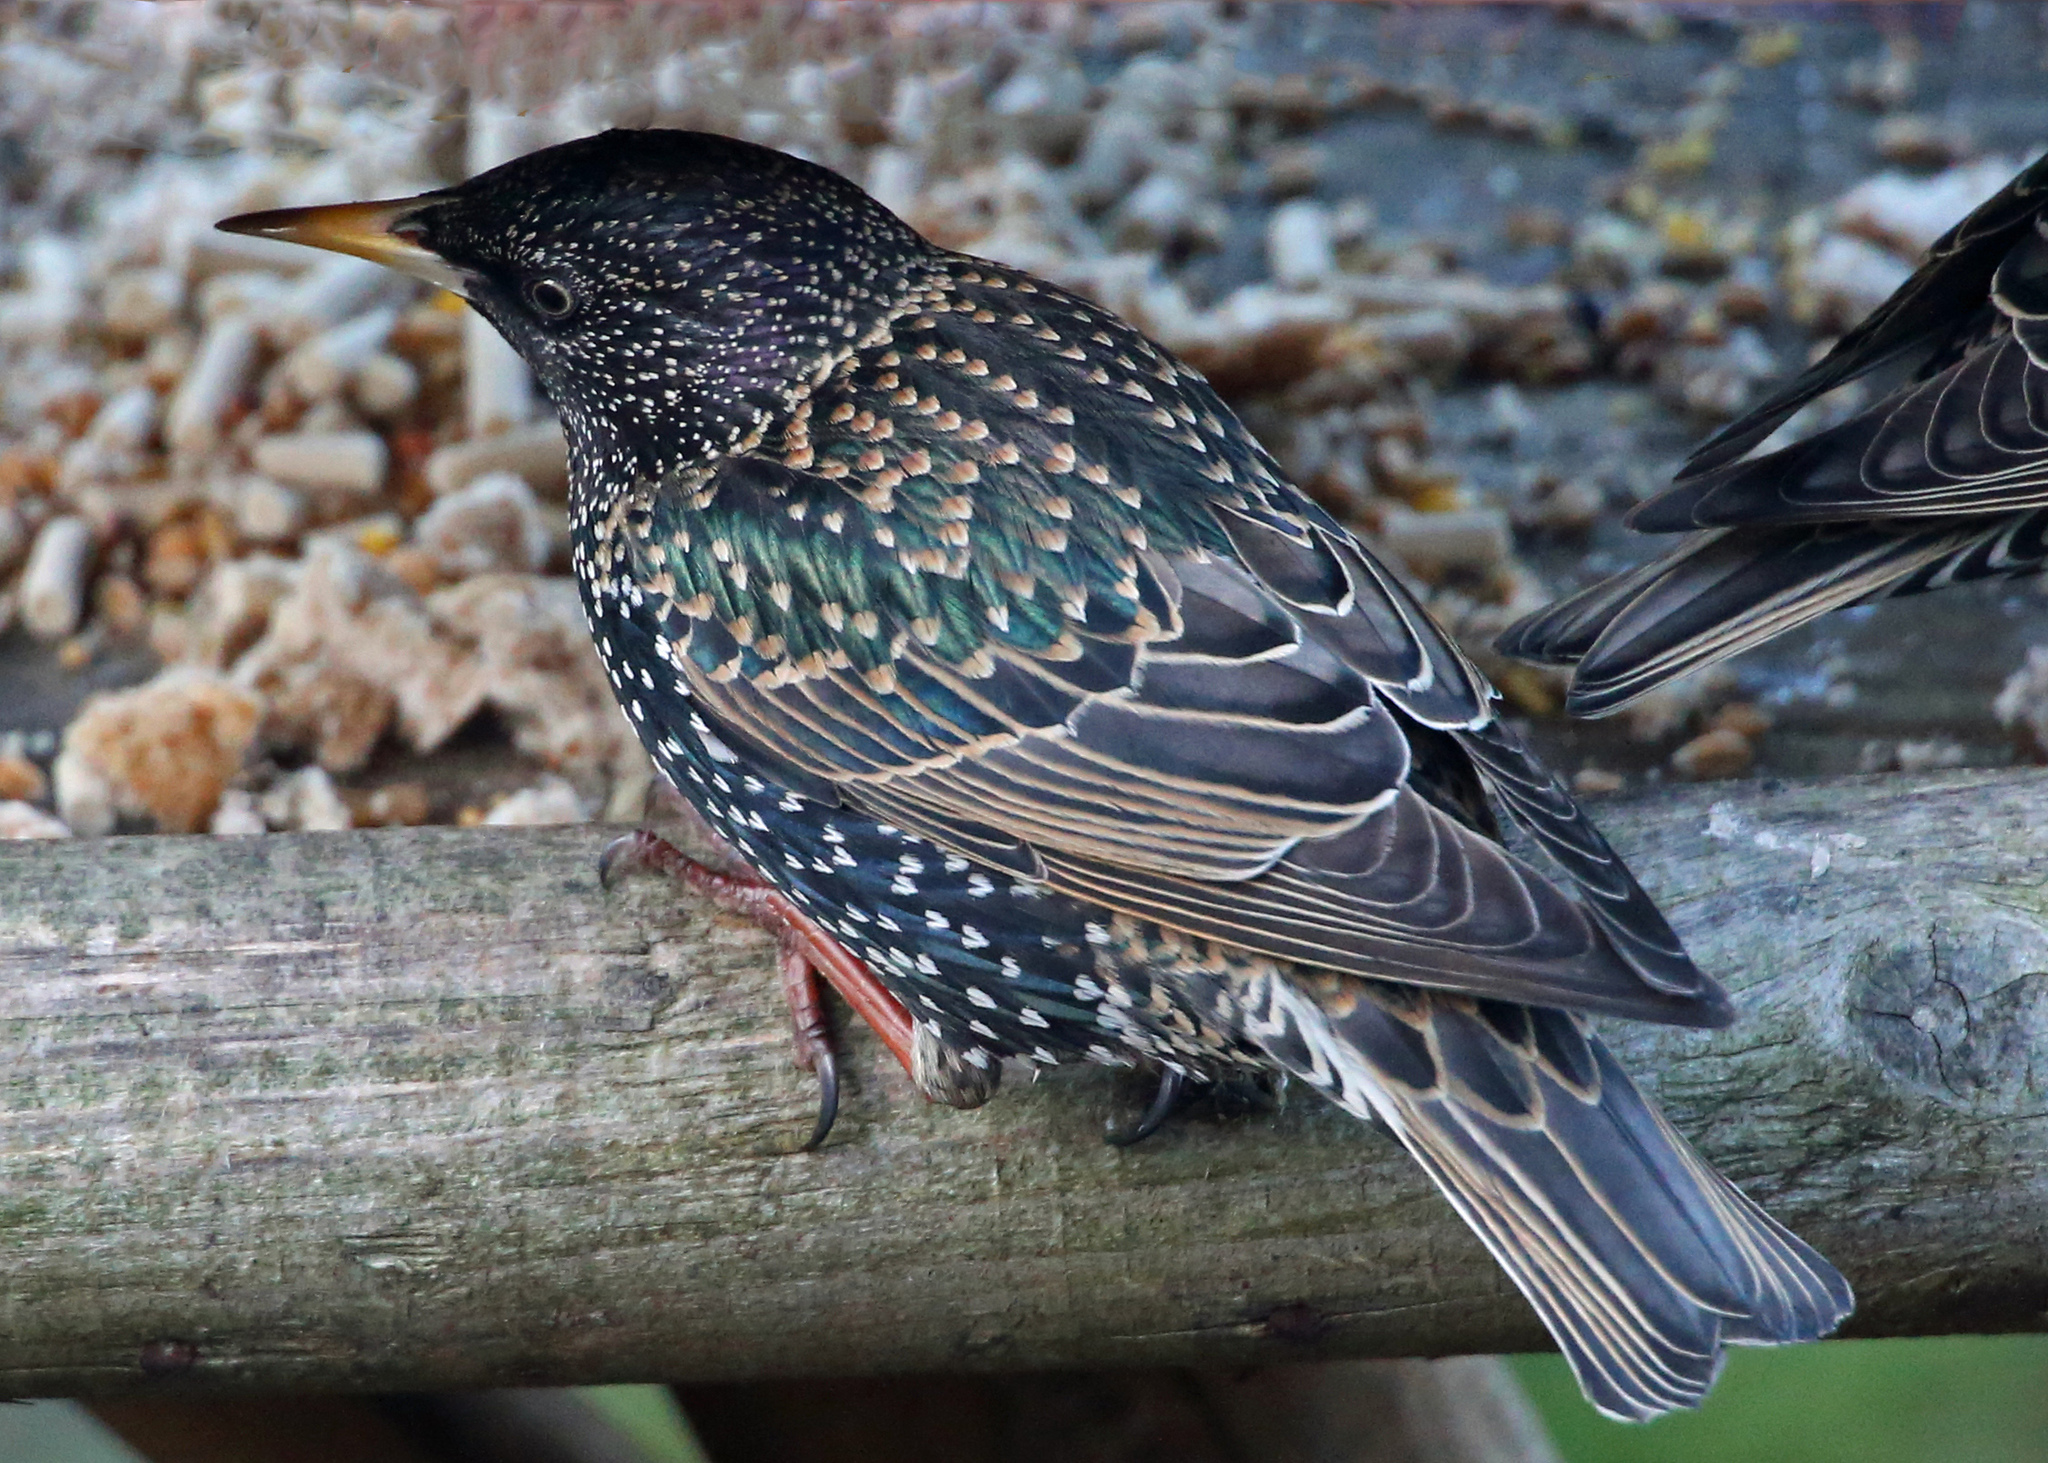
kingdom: Animalia
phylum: Chordata
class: Aves
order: Passeriformes
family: Sturnidae
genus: Sturnus
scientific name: Sturnus vulgaris
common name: Common starling
